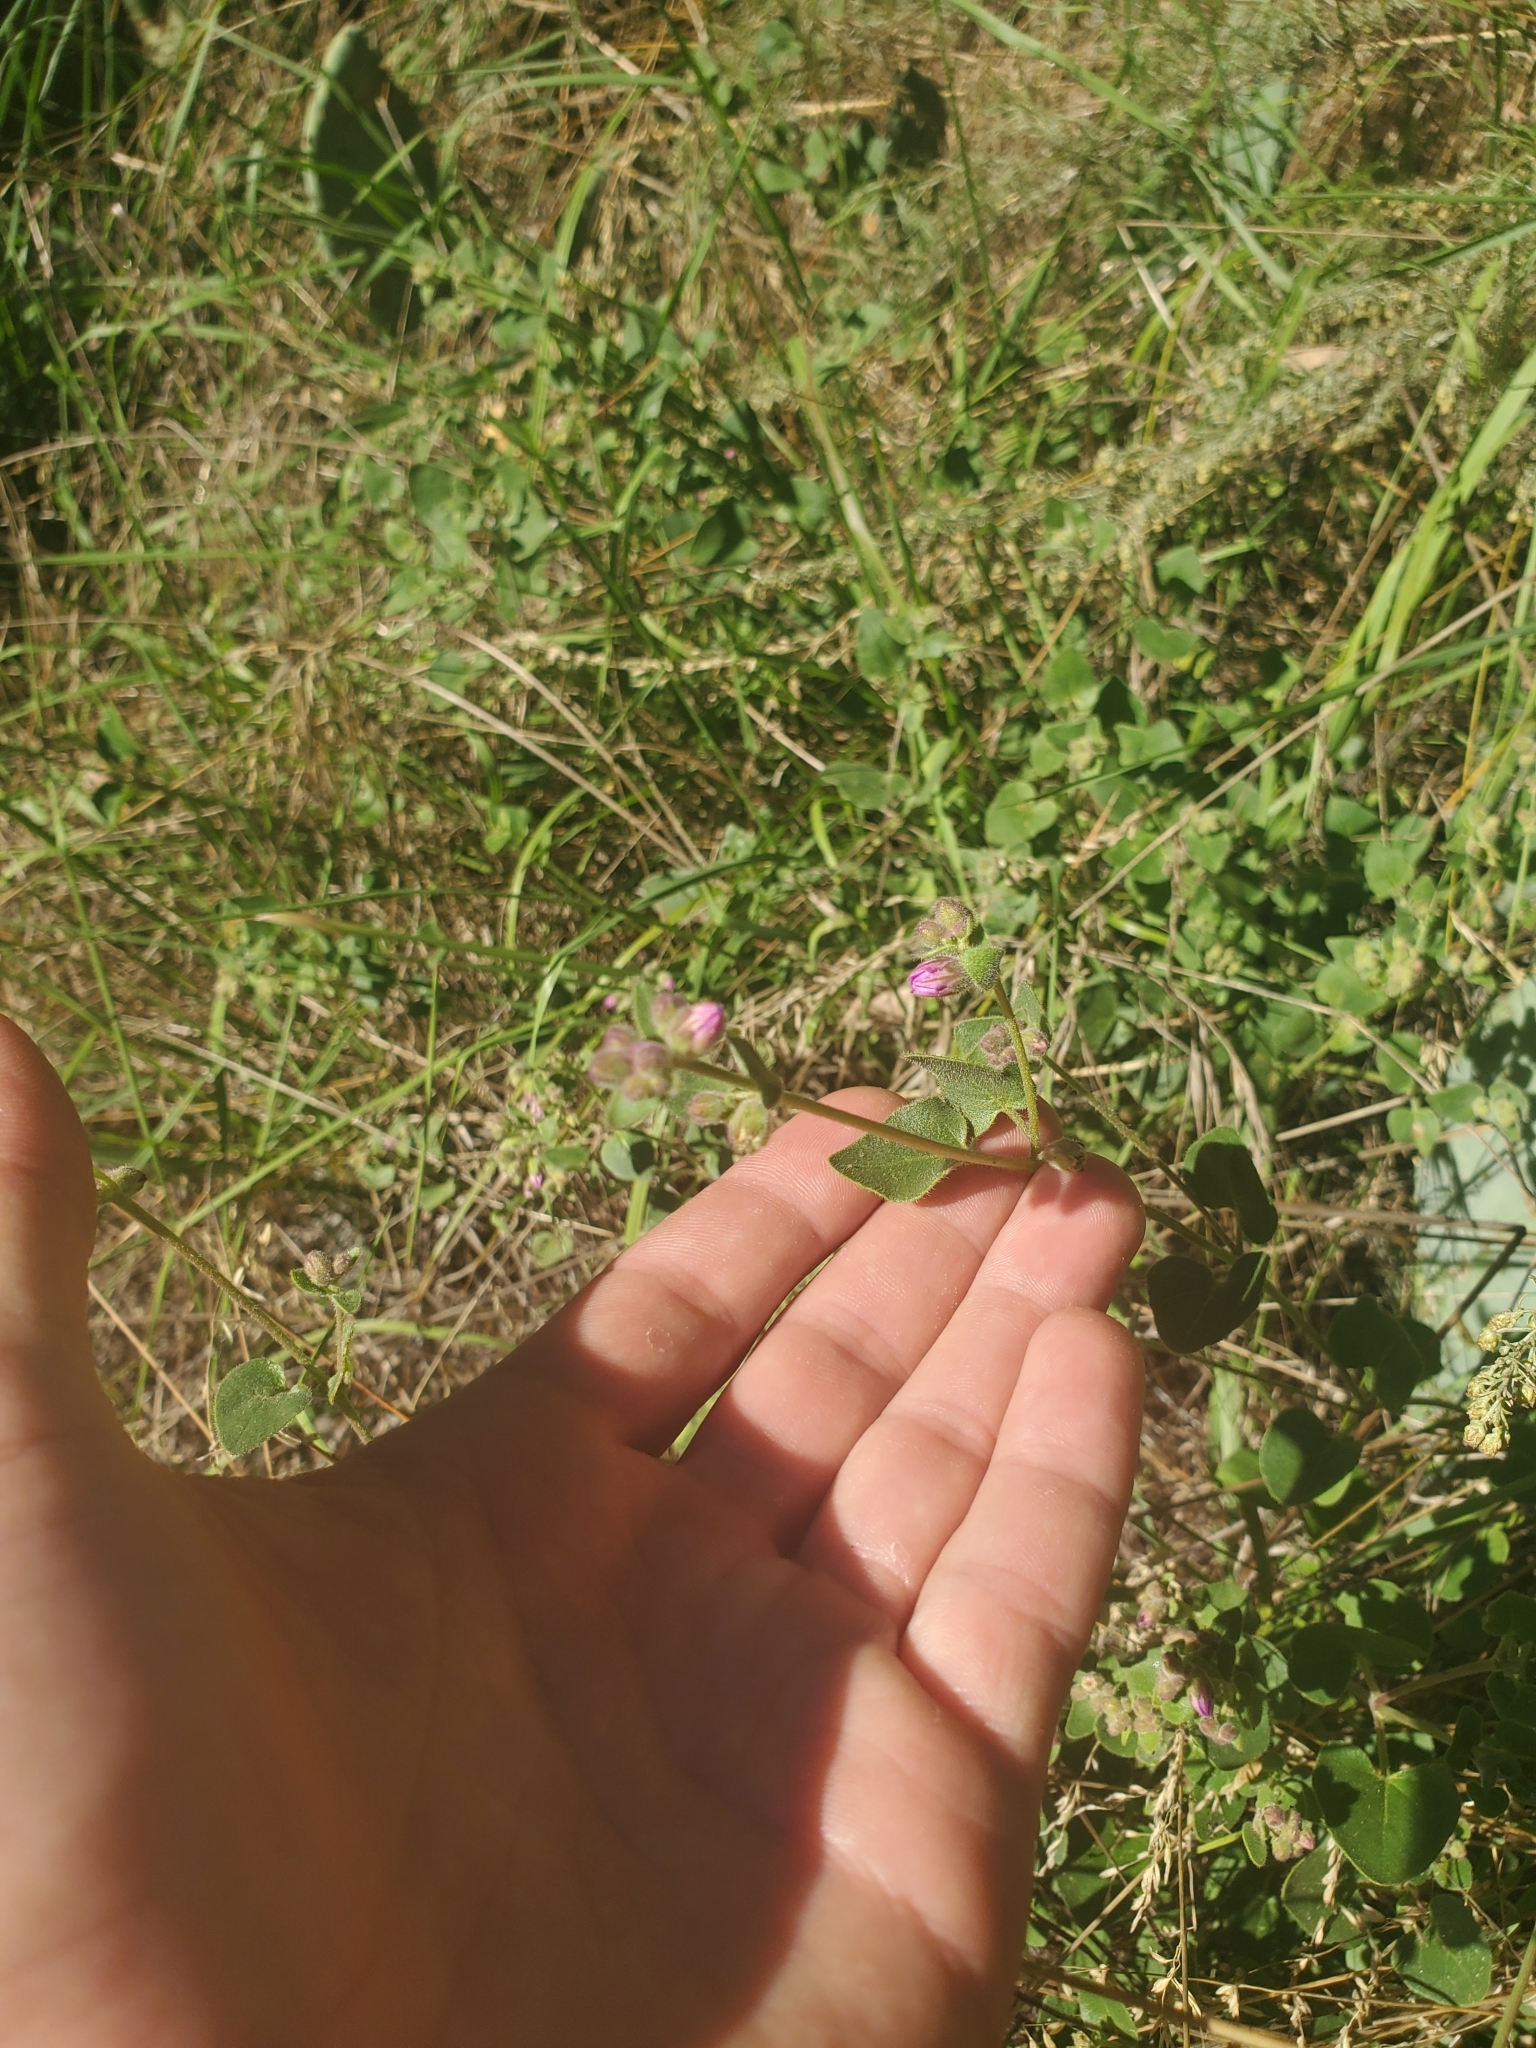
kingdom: Plantae
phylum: Tracheophyta
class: Magnoliopsida
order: Caryophyllales
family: Nyctaginaceae
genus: Mirabilis
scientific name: Mirabilis laevis
